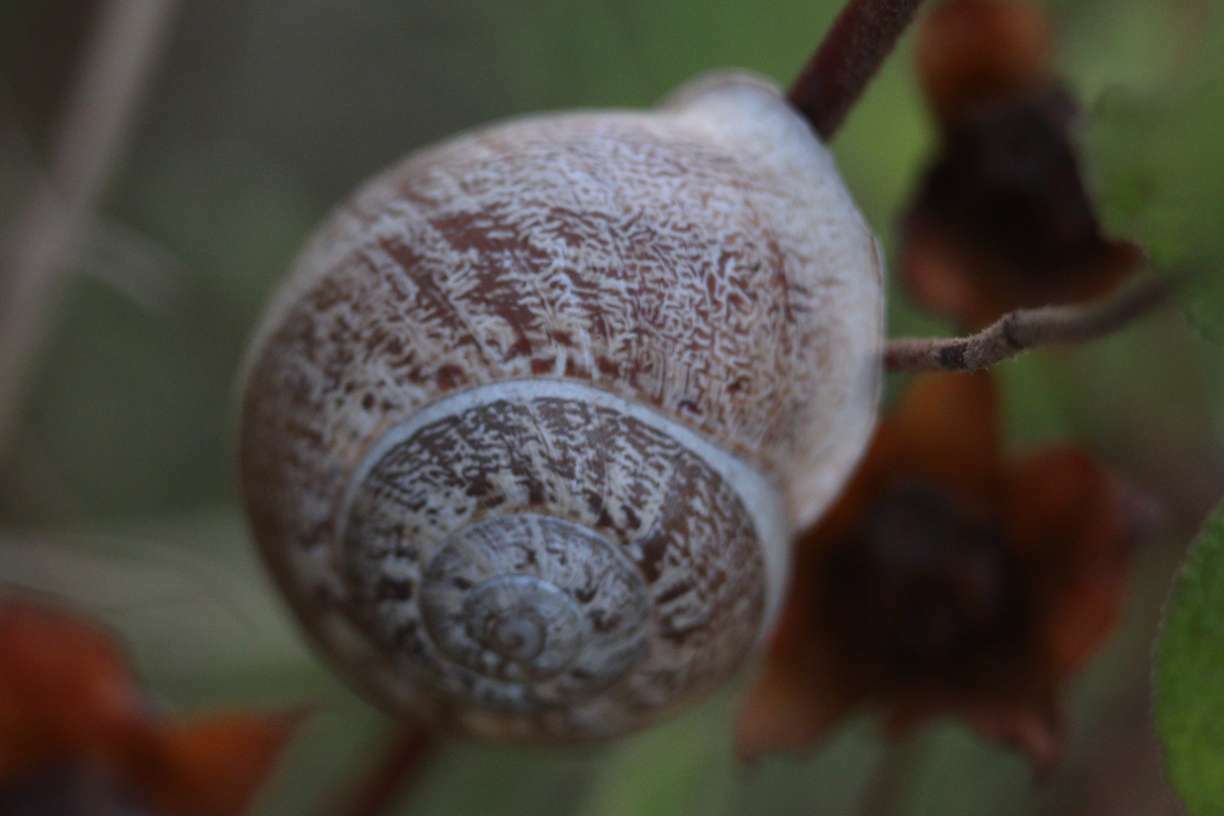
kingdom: Animalia
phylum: Mollusca
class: Gastropoda
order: Stylommatophora
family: Helicidae
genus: Eobania
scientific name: Eobania vermiculata
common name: Chocolateband snail
